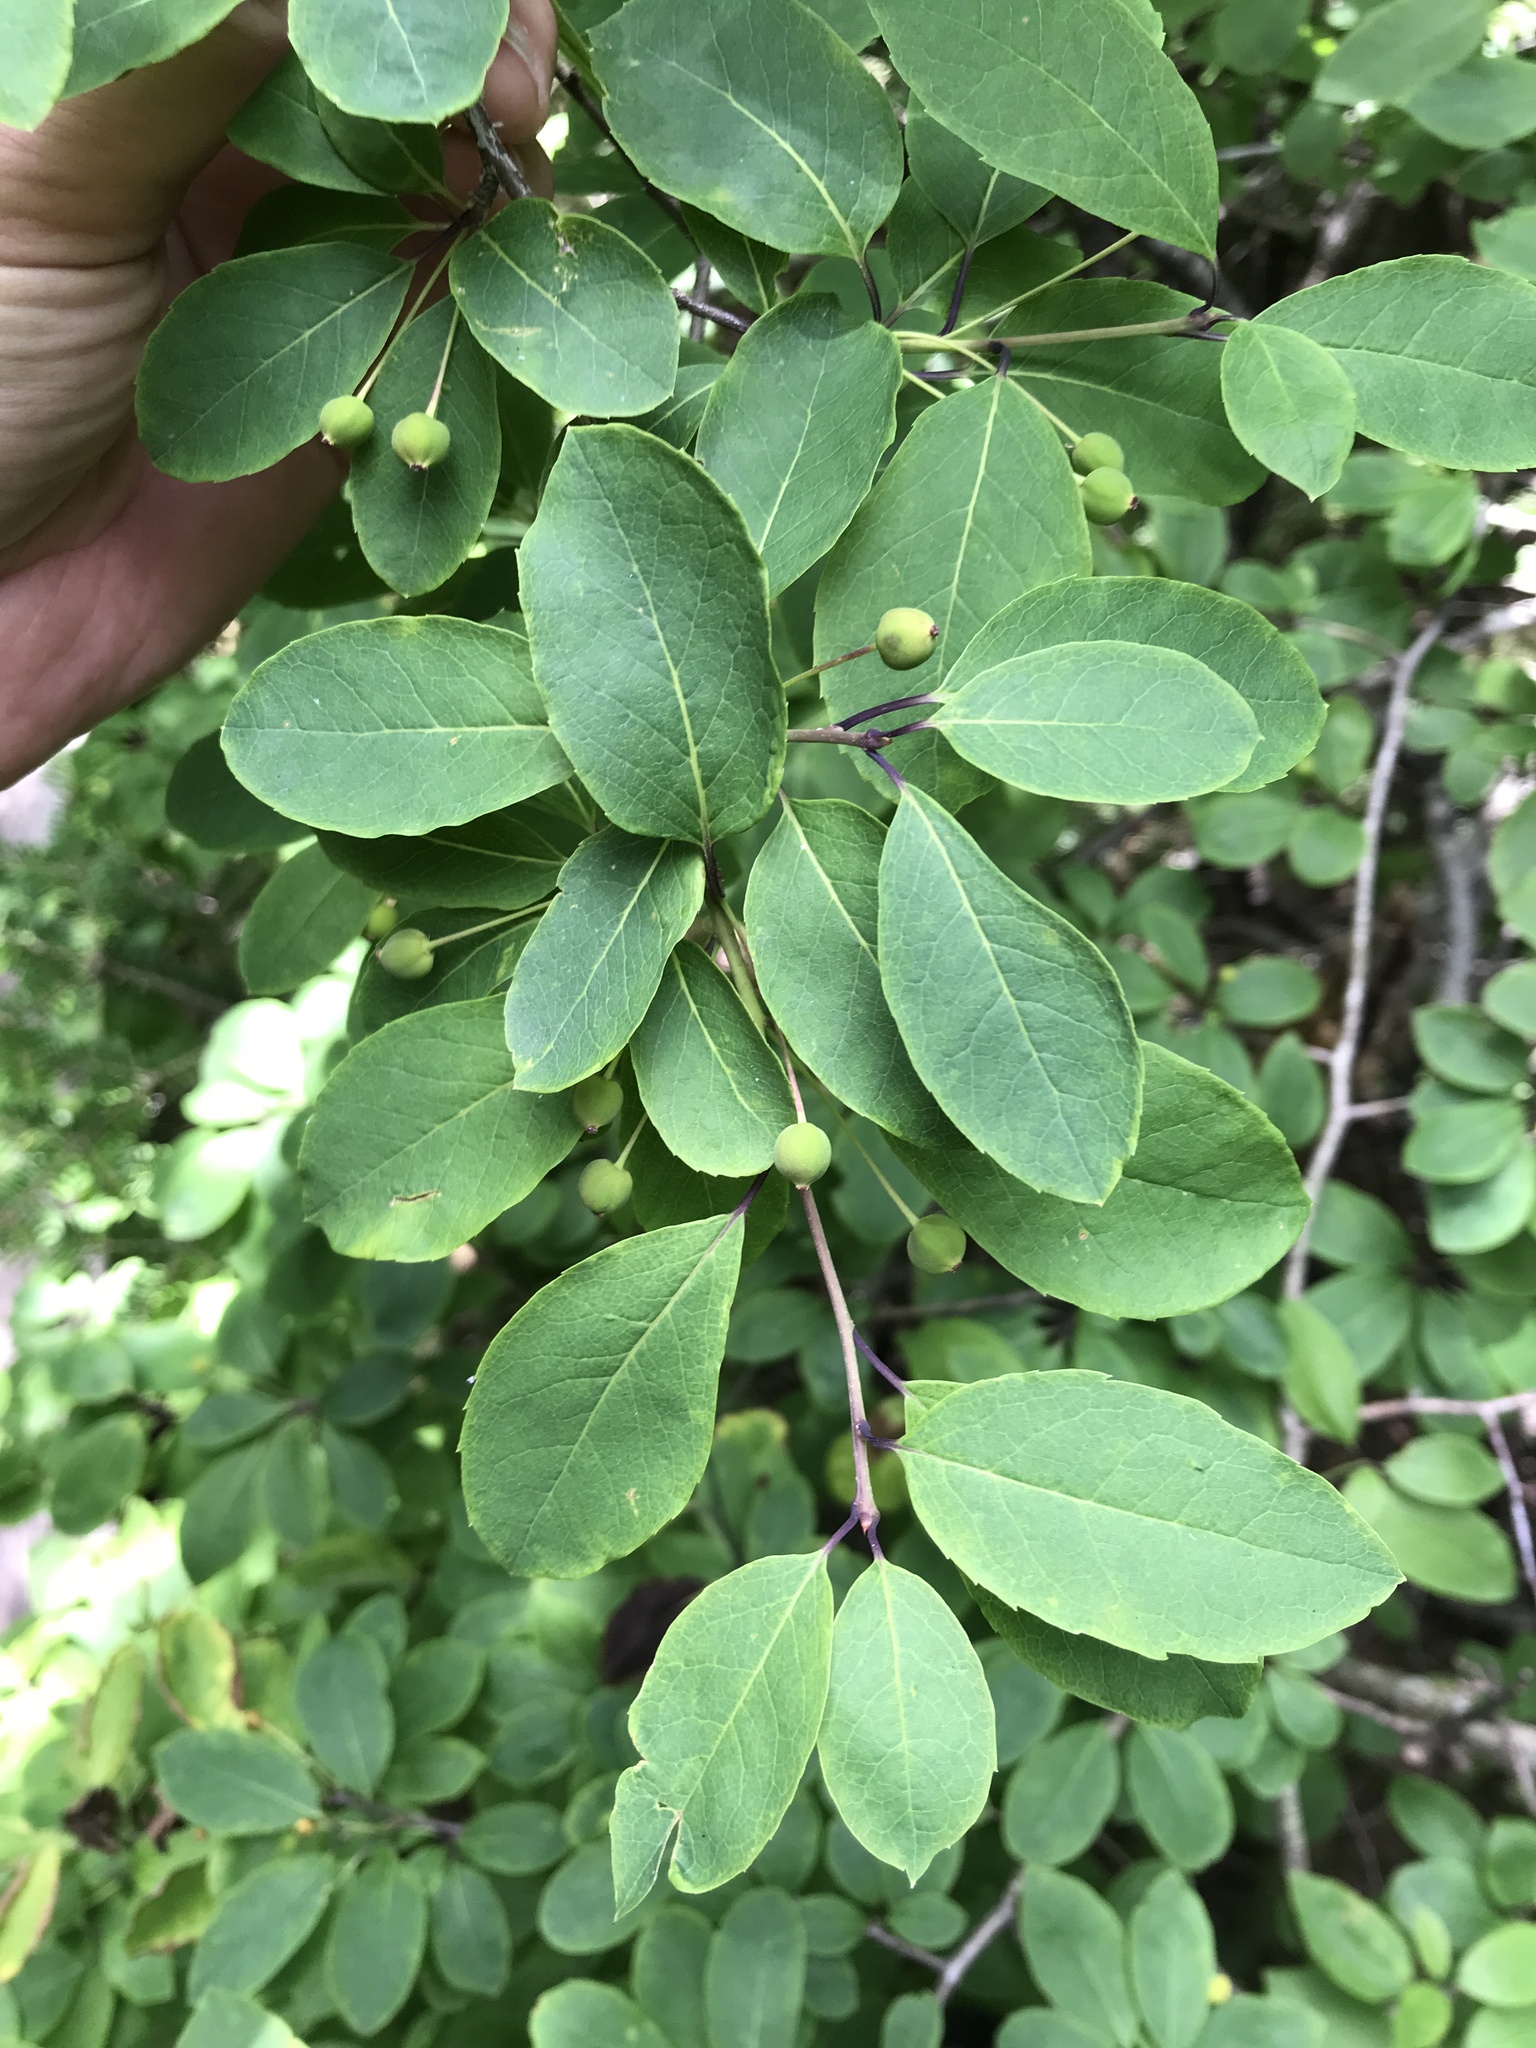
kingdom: Plantae
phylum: Tracheophyta
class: Magnoliopsida
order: Aquifoliales
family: Aquifoliaceae
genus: Ilex
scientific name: Ilex mucronata
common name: Catberry
